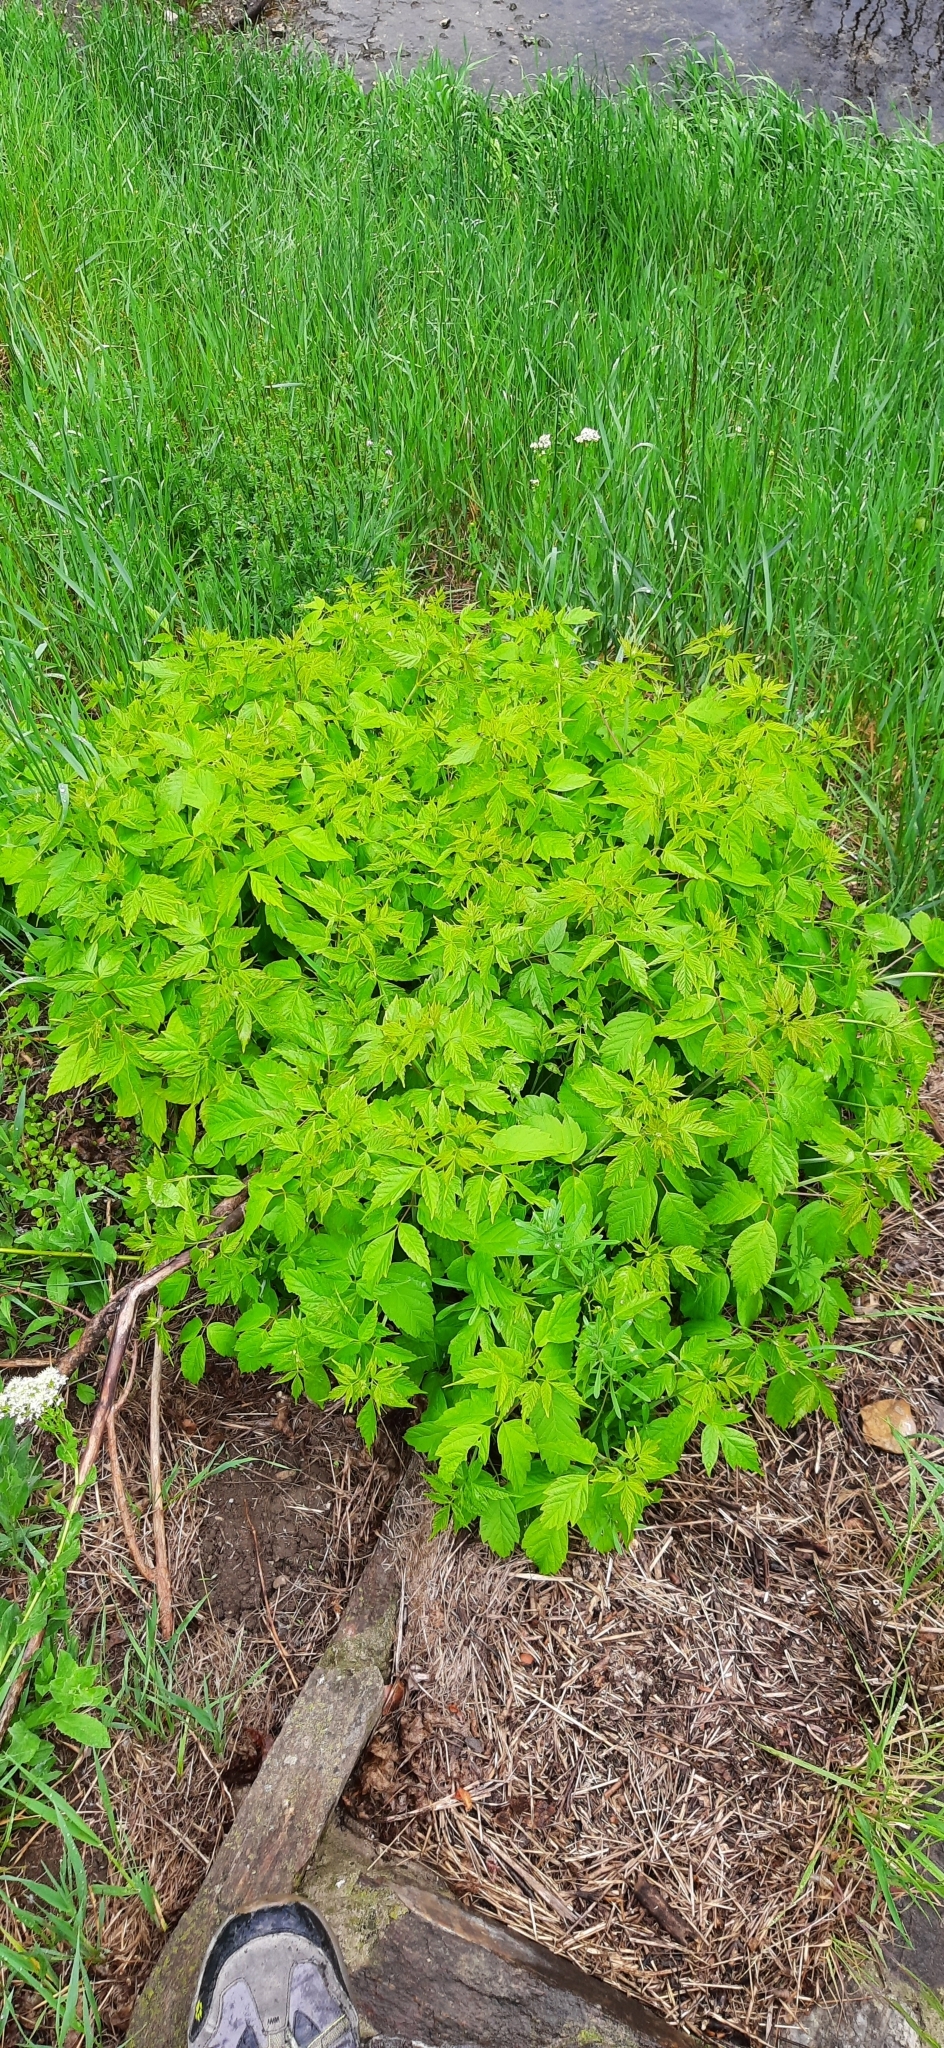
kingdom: Plantae
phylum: Tracheophyta
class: Magnoliopsida
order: Sapindales
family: Sapindaceae
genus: Acer
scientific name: Acer negundo
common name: Ashleaf maple
